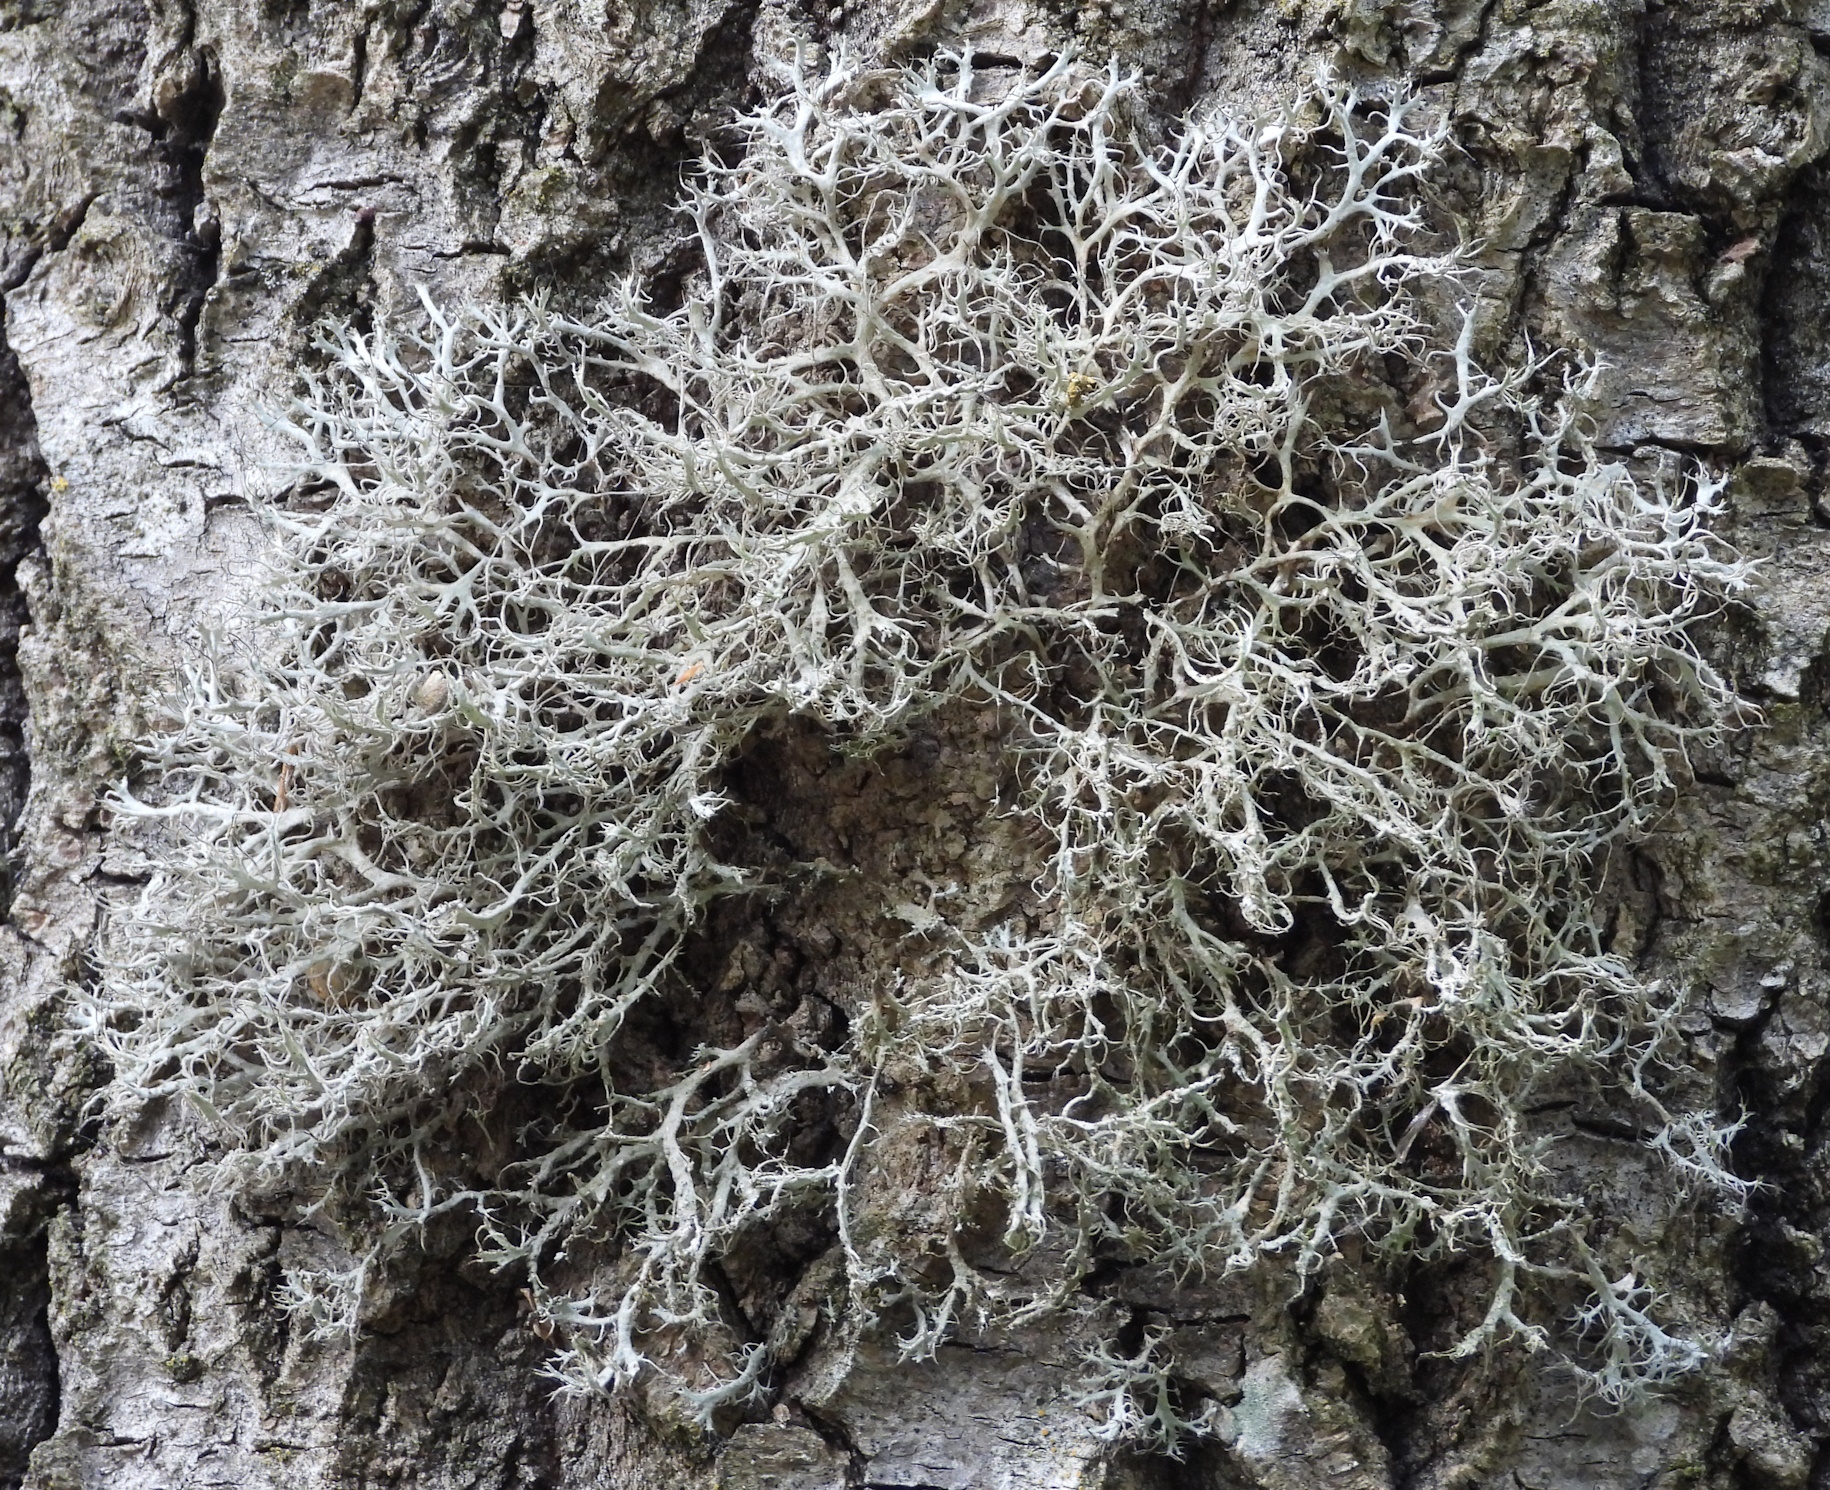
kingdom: Fungi
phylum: Ascomycota
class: Lecanoromycetes
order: Caliciales
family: Physciaceae
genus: Anaptychia
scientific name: Anaptychia ciliaris
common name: Great ciliated lichen
